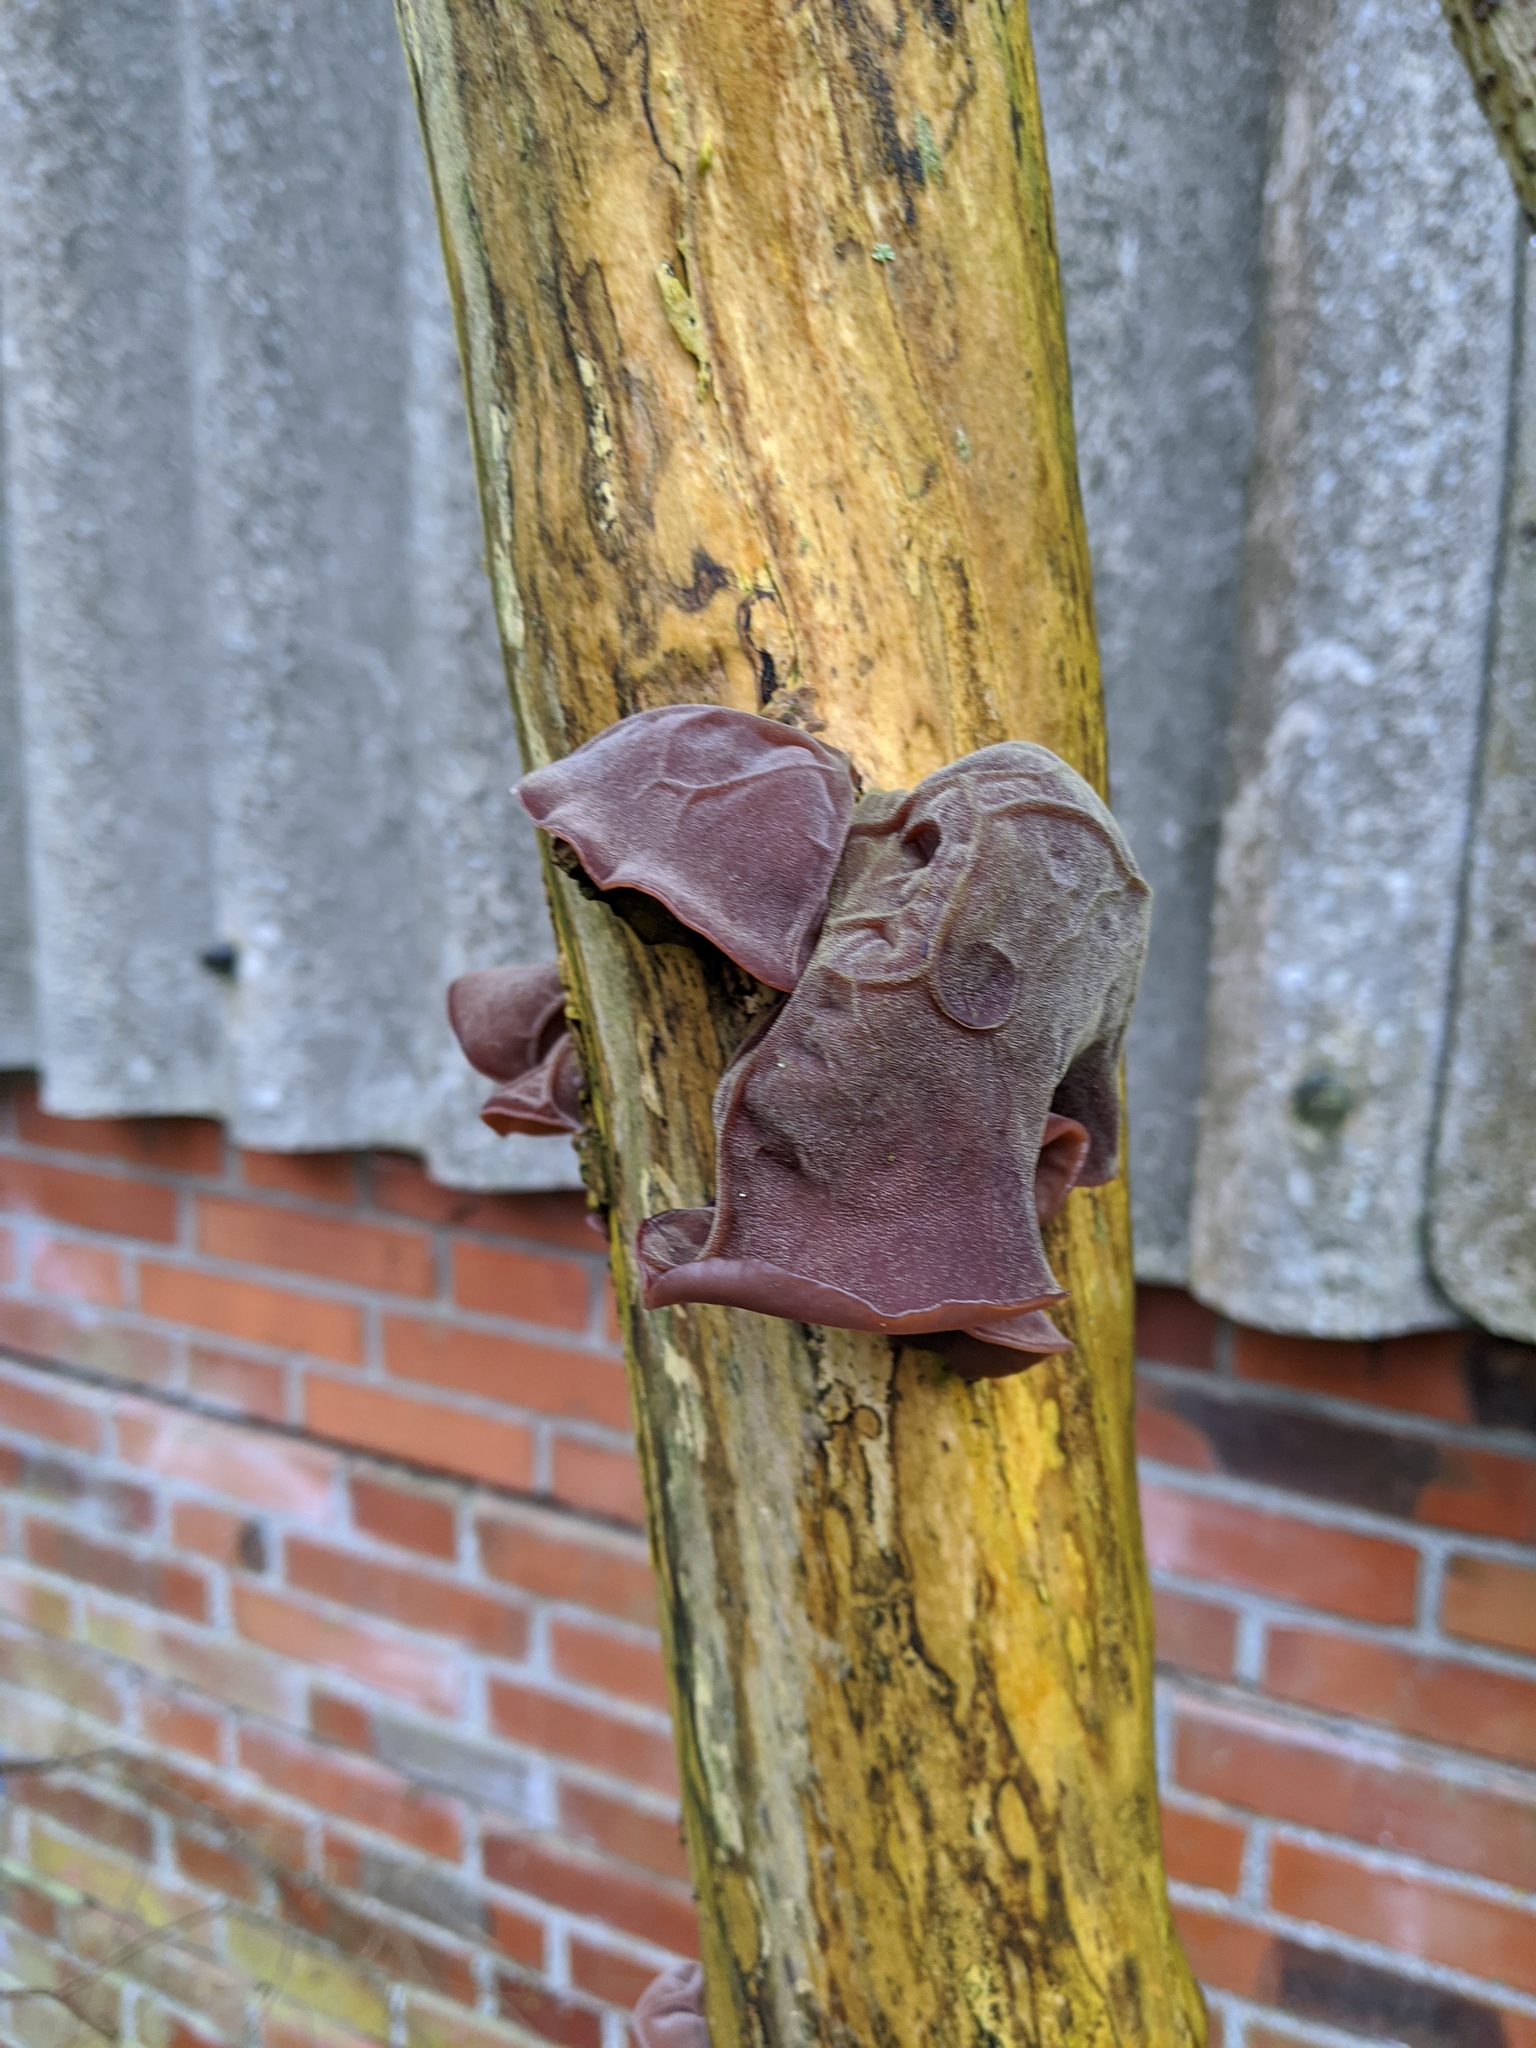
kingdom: Fungi
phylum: Basidiomycota
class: Agaricomycetes
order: Auriculariales
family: Auriculariaceae
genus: Auricularia
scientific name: Auricularia auricula-judae
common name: Jelly ear
